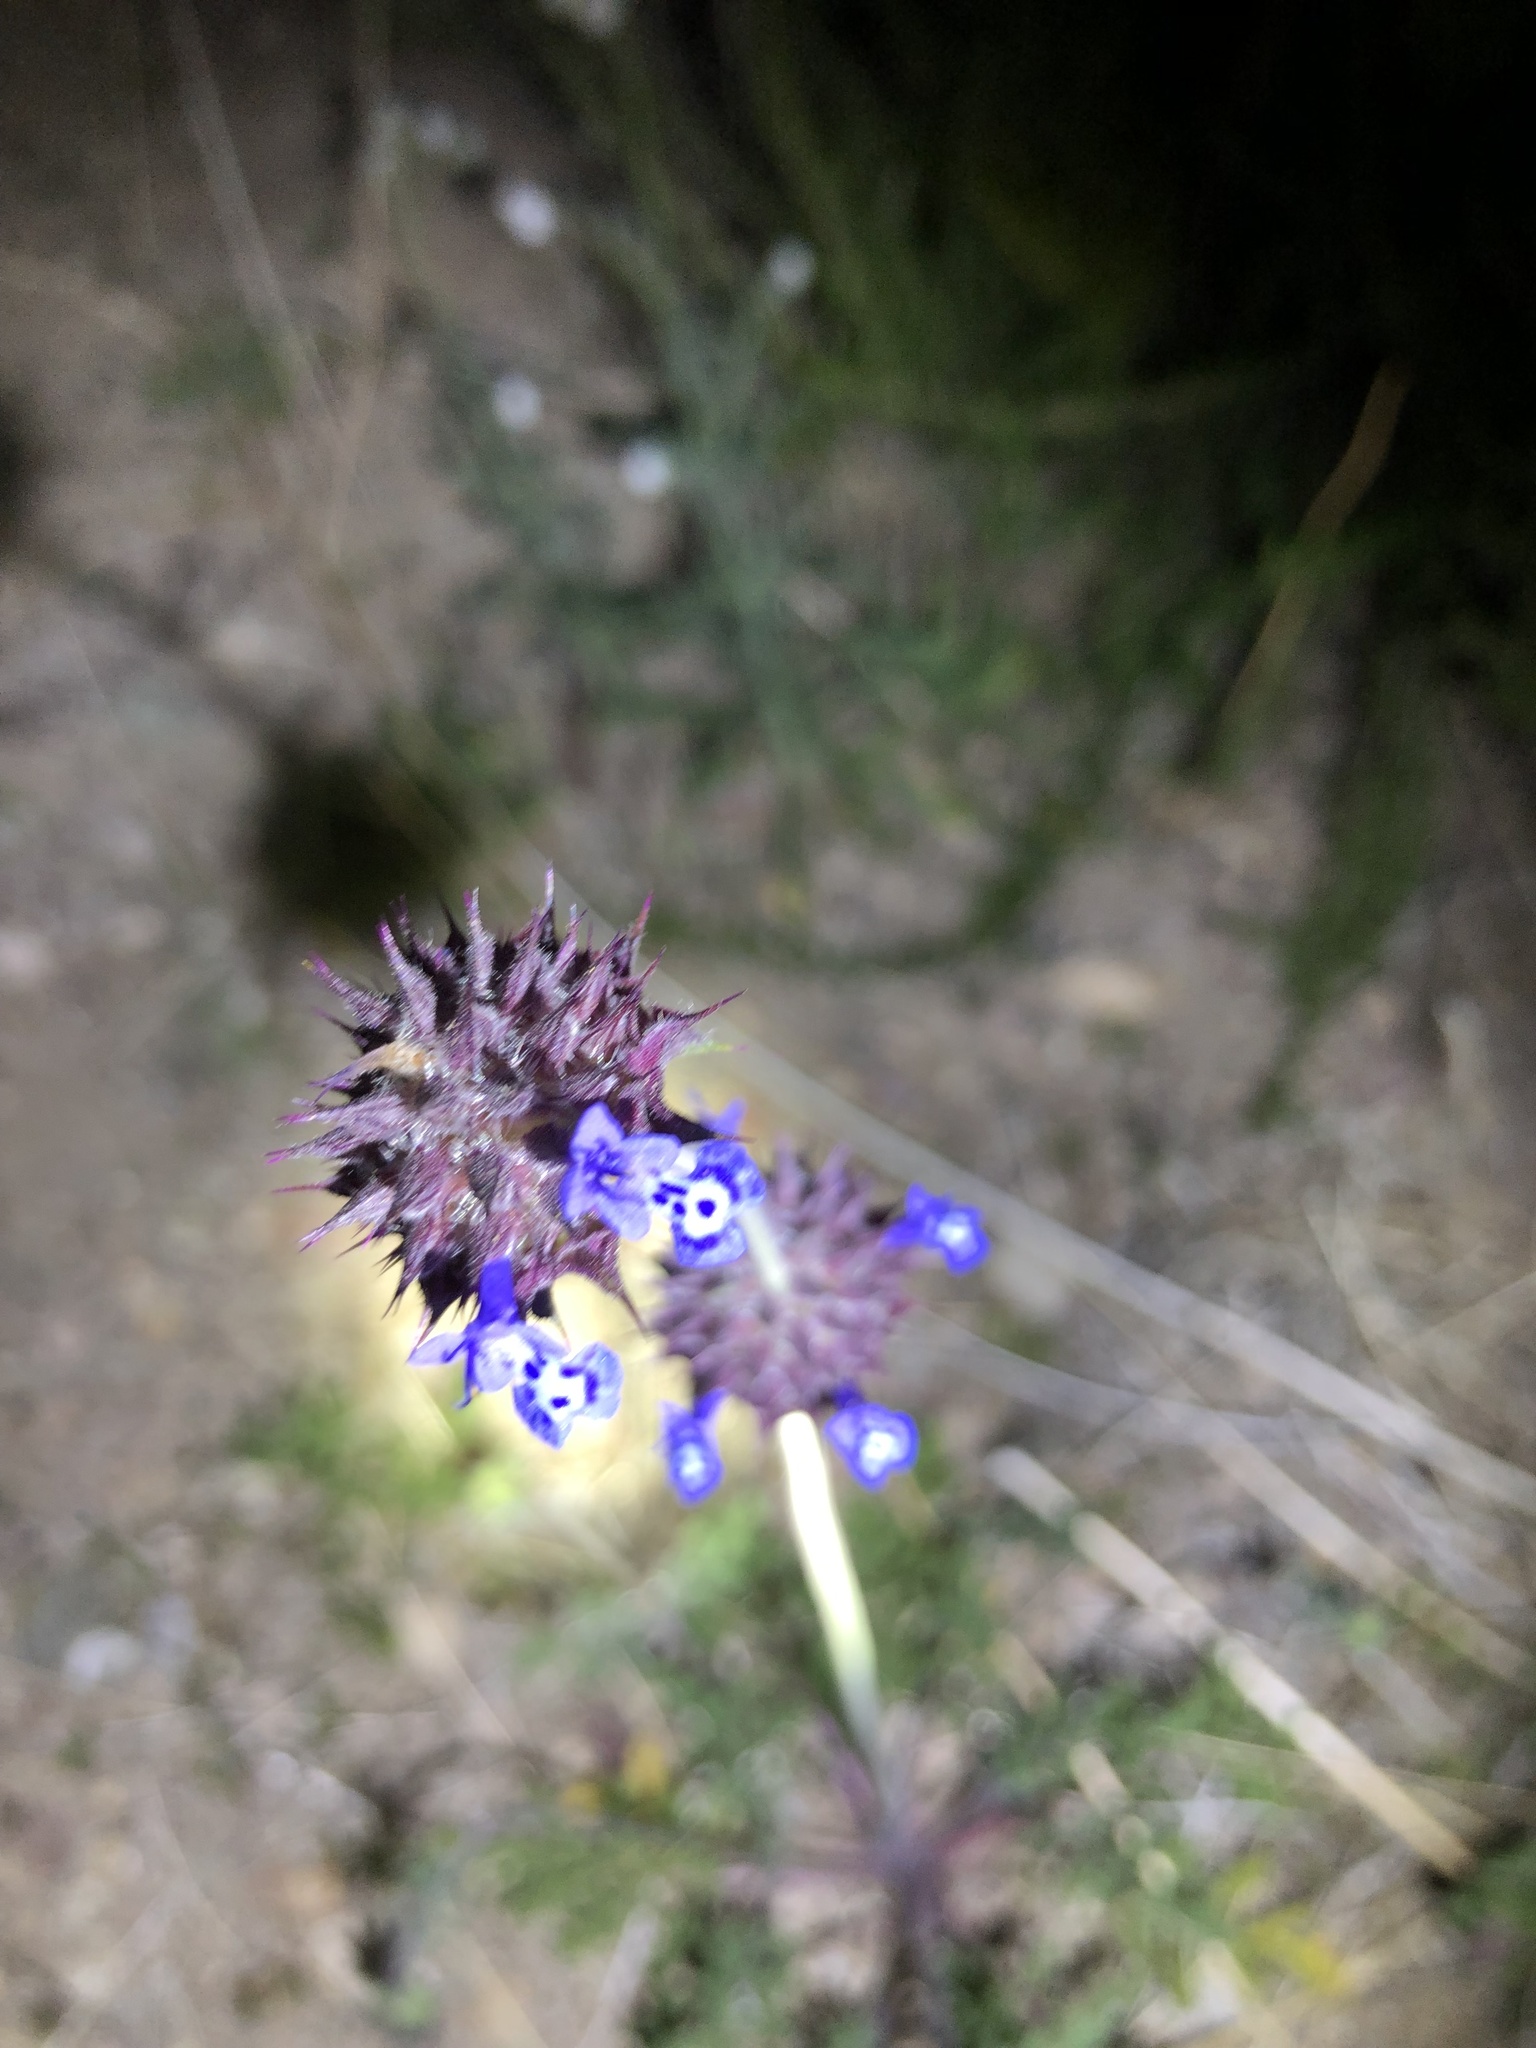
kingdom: Plantae
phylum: Tracheophyta
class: Magnoliopsida
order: Lamiales
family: Lamiaceae
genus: Salvia
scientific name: Salvia columbariae
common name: Chia
